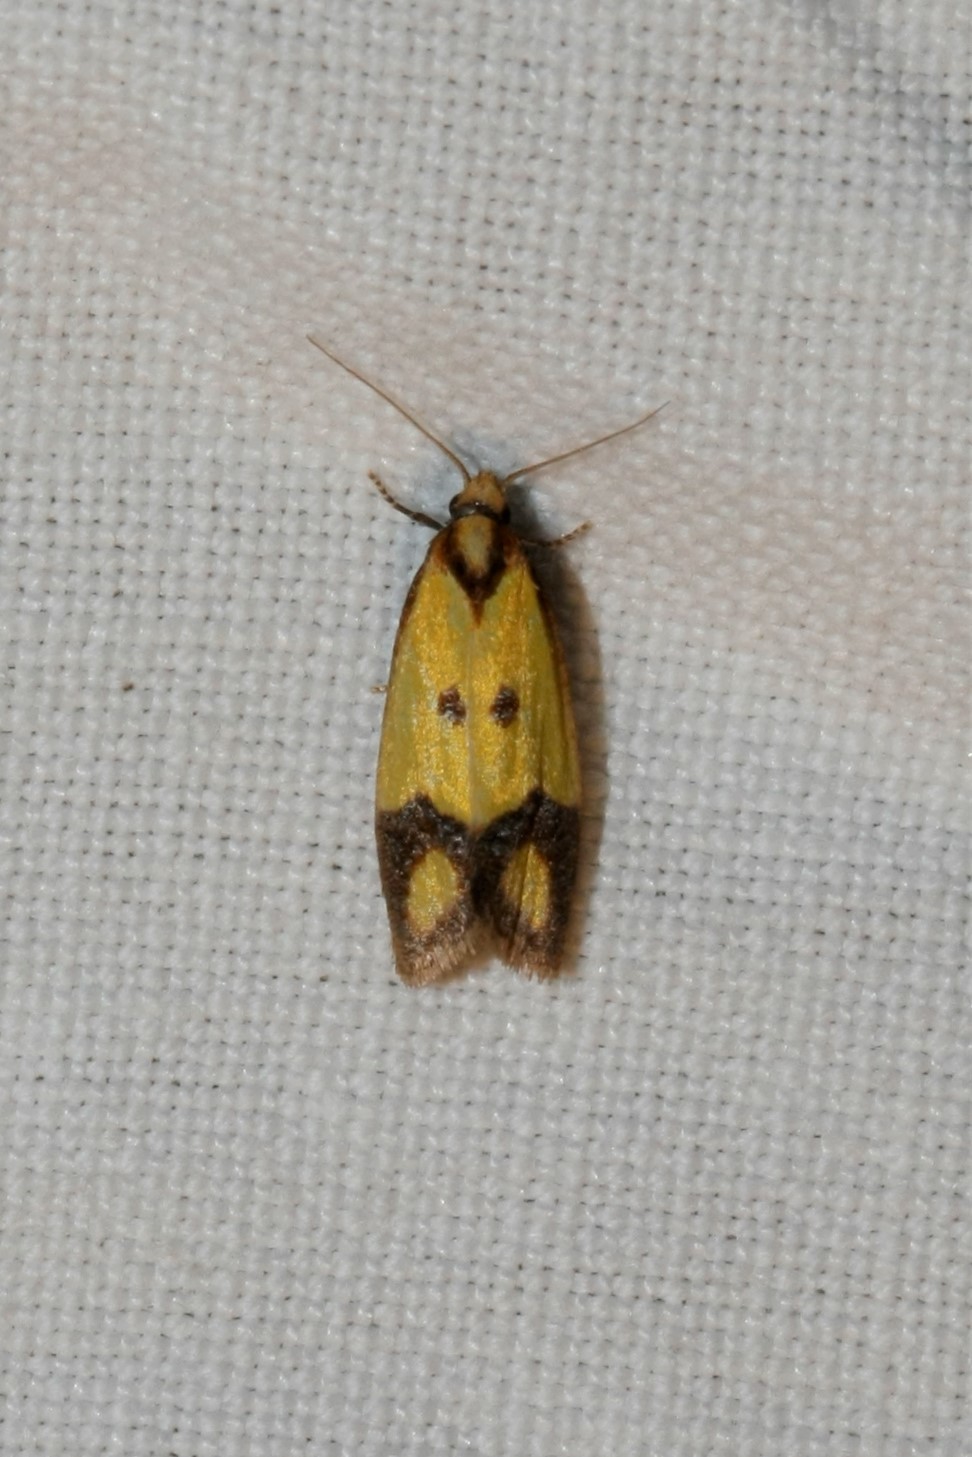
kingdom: Animalia
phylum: Arthropoda
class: Insecta
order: Lepidoptera
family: Tortricidae
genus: Agapeta
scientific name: Agapeta zoegana
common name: Sulfur knapweed root moth
